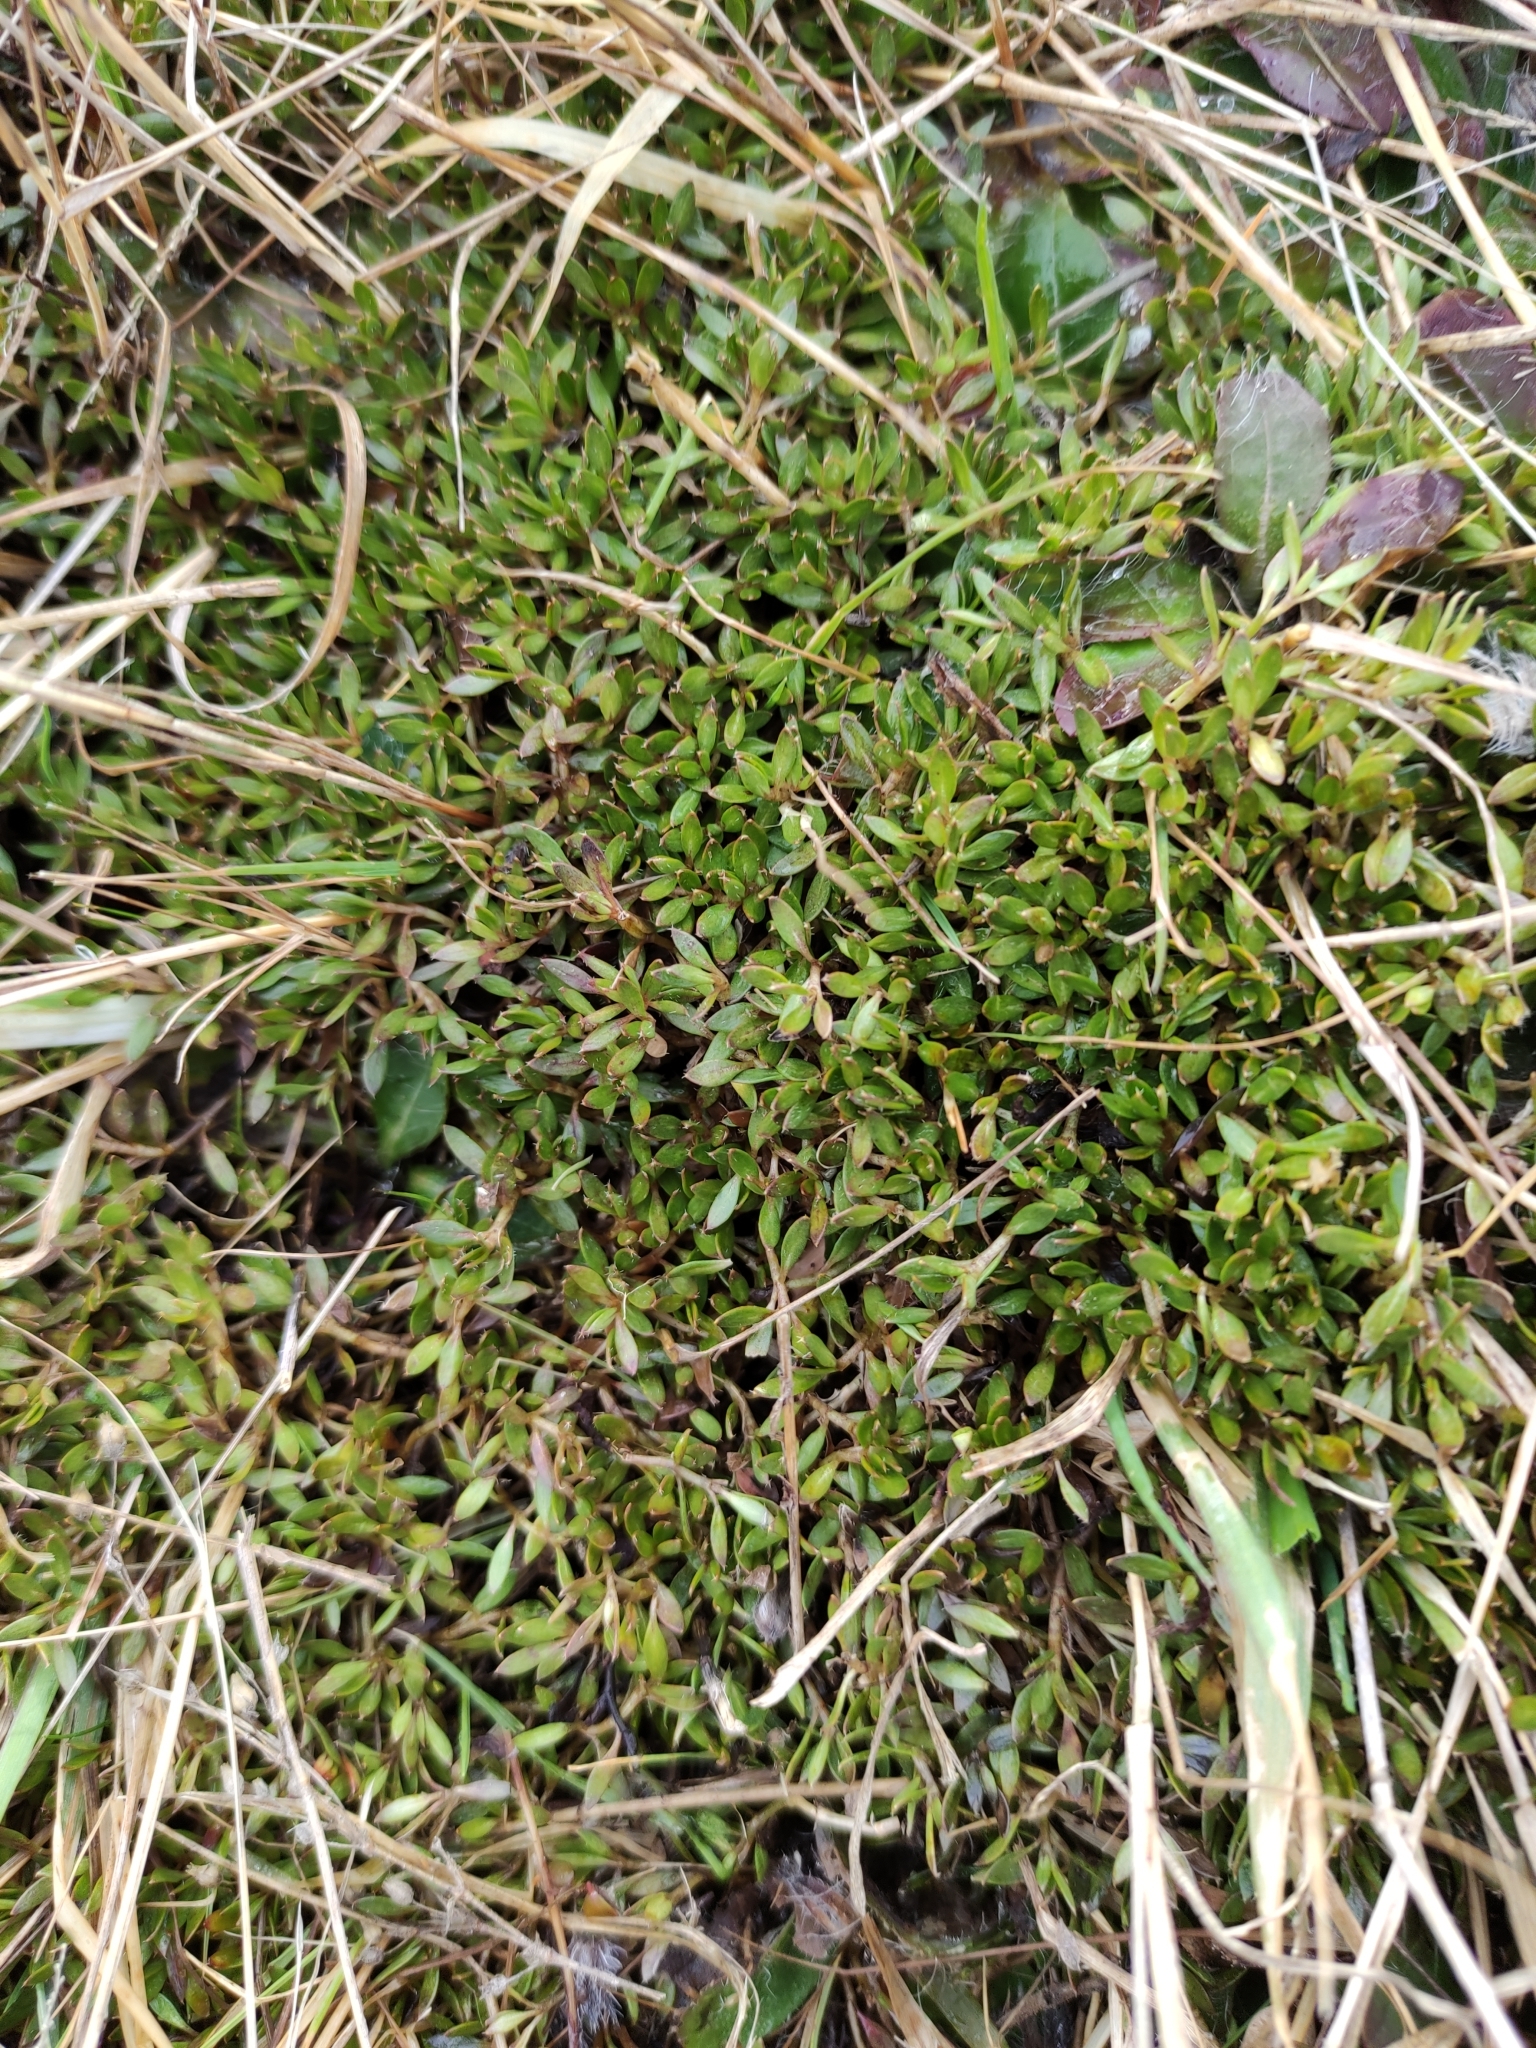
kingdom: Plantae
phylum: Tracheophyta
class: Magnoliopsida
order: Gentianales
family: Rubiaceae
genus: Coprosma
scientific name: Coprosma petriei
